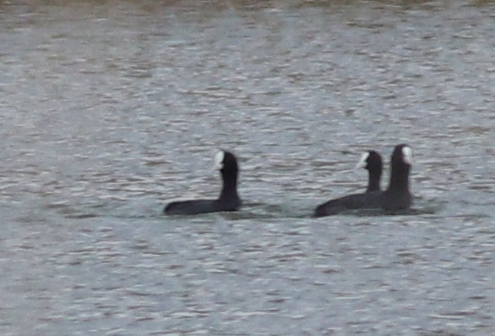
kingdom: Animalia
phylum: Chordata
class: Aves
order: Gruiformes
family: Rallidae
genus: Fulica
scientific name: Fulica atra
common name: Eurasian coot
